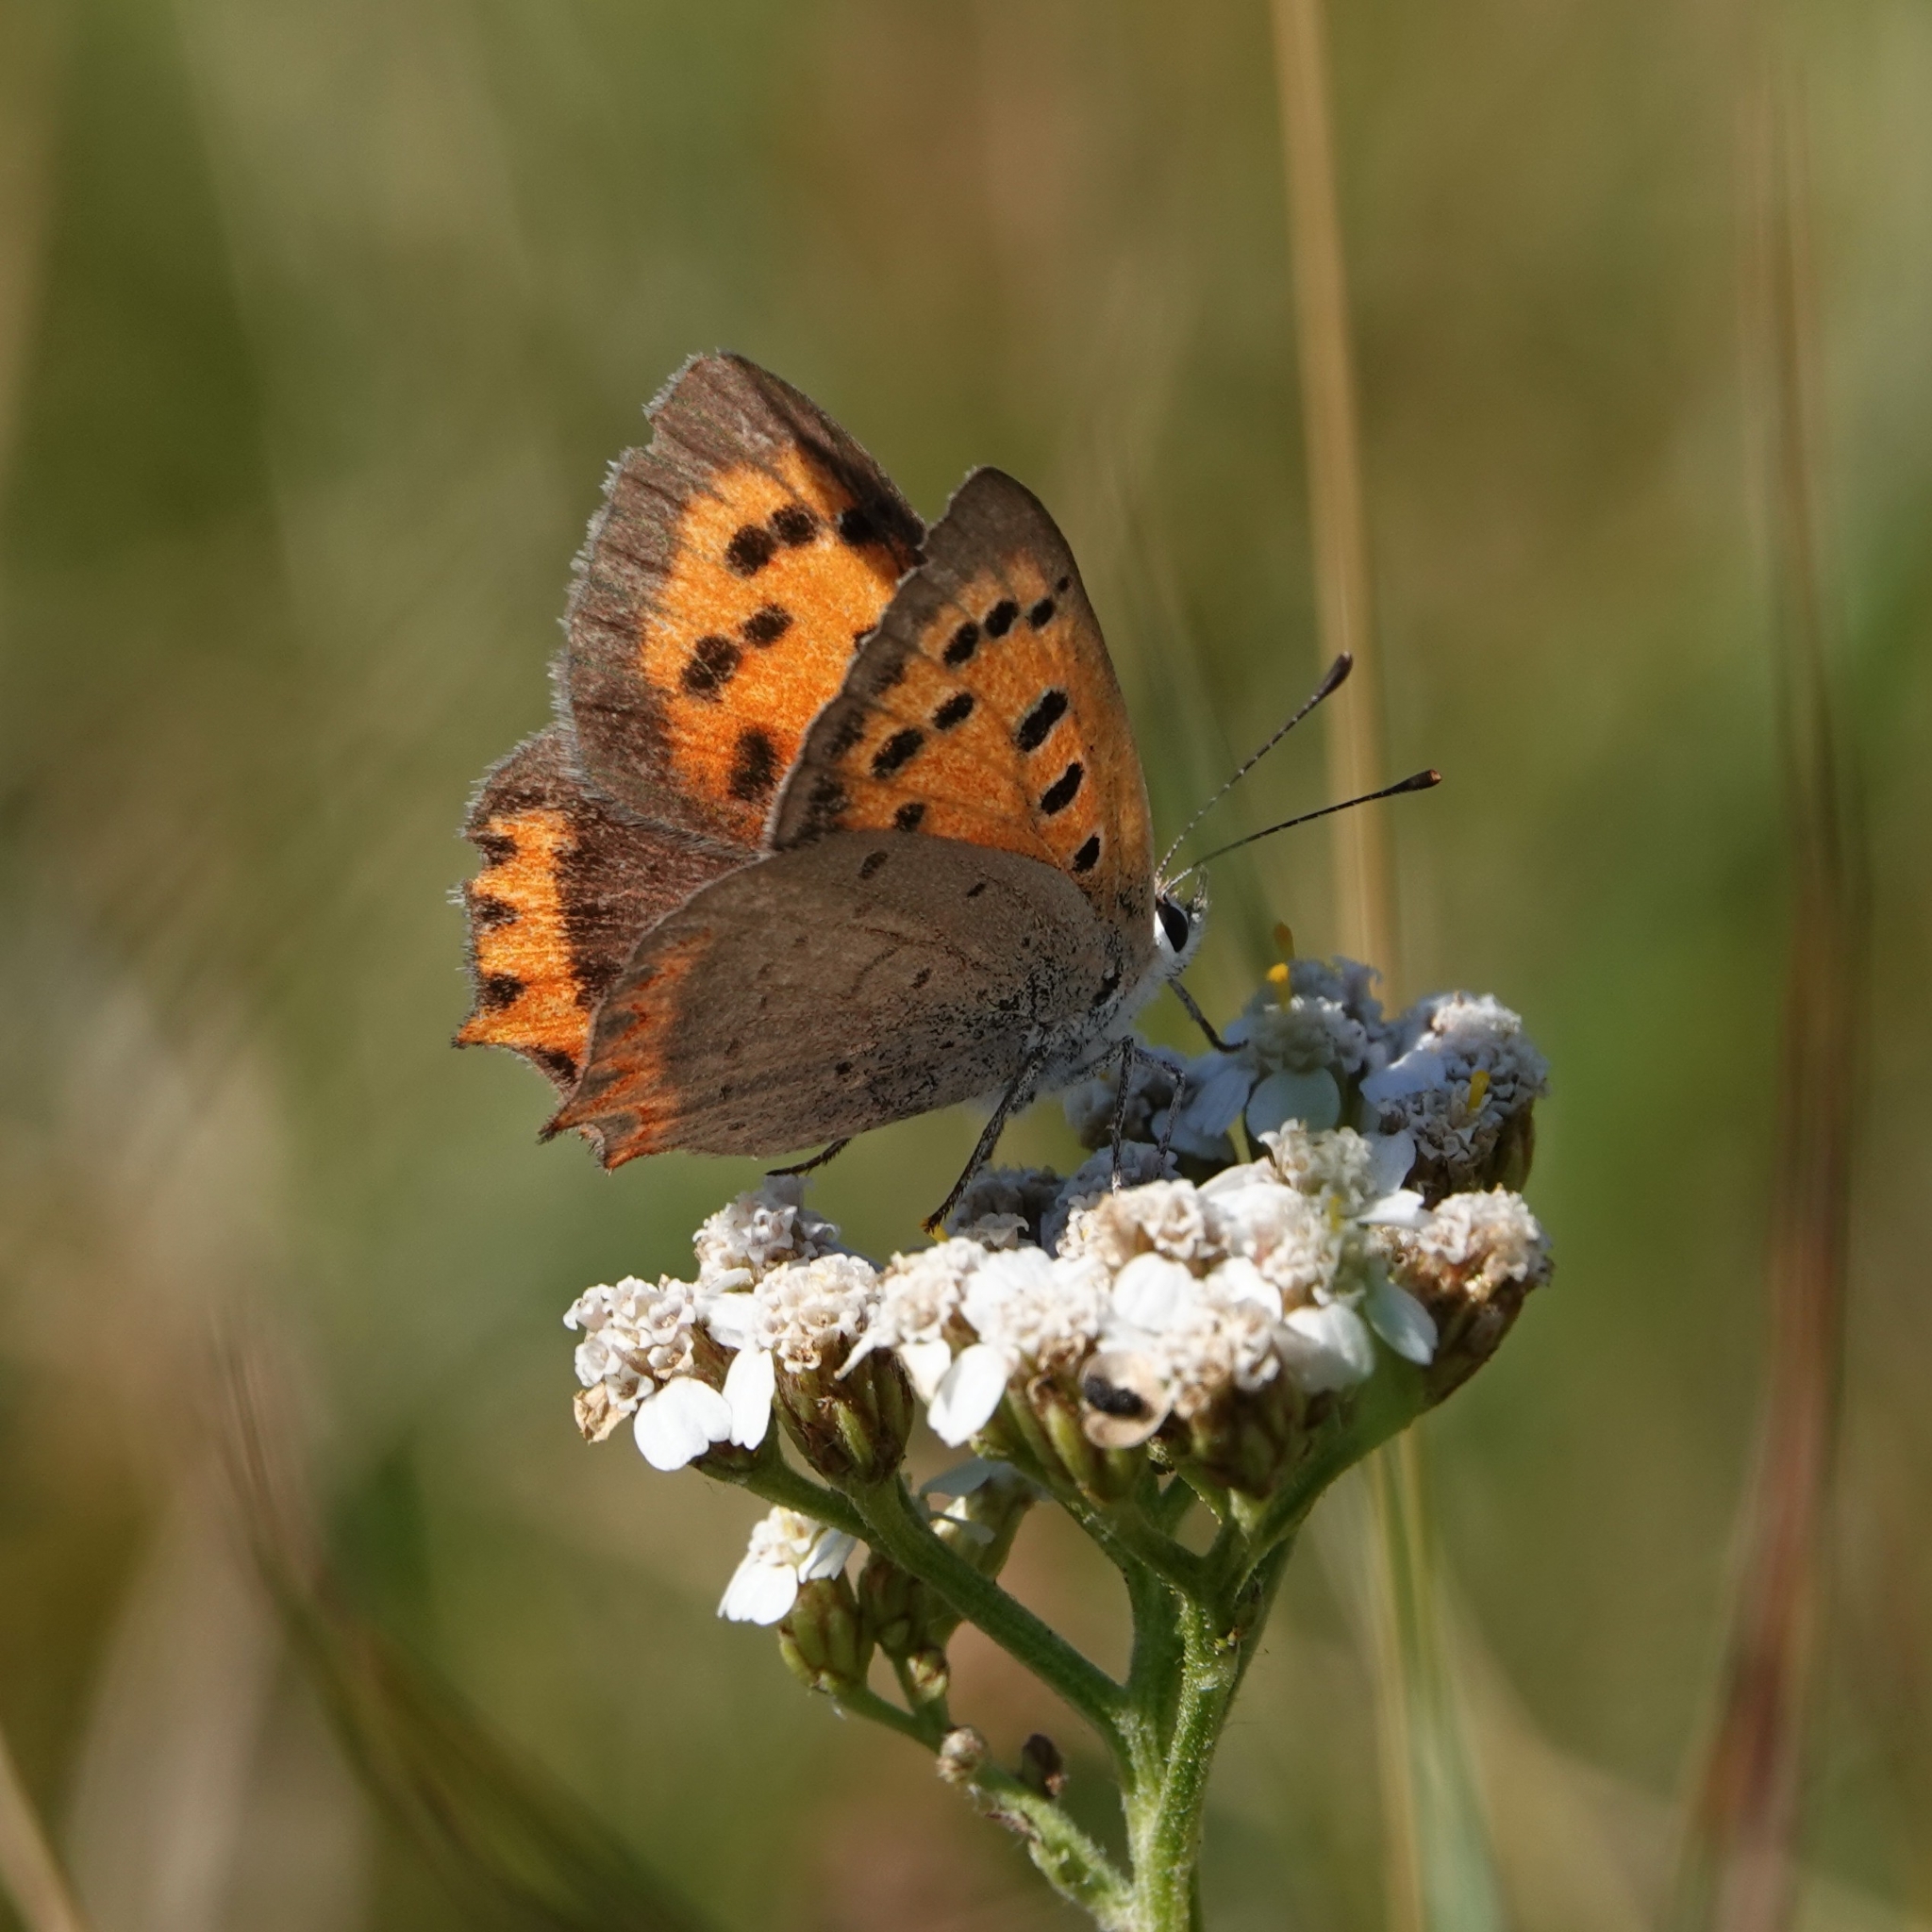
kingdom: Animalia
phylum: Arthropoda
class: Insecta
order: Lepidoptera
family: Lycaenidae
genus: Lycaena
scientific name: Lycaena phlaeas
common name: Small copper
